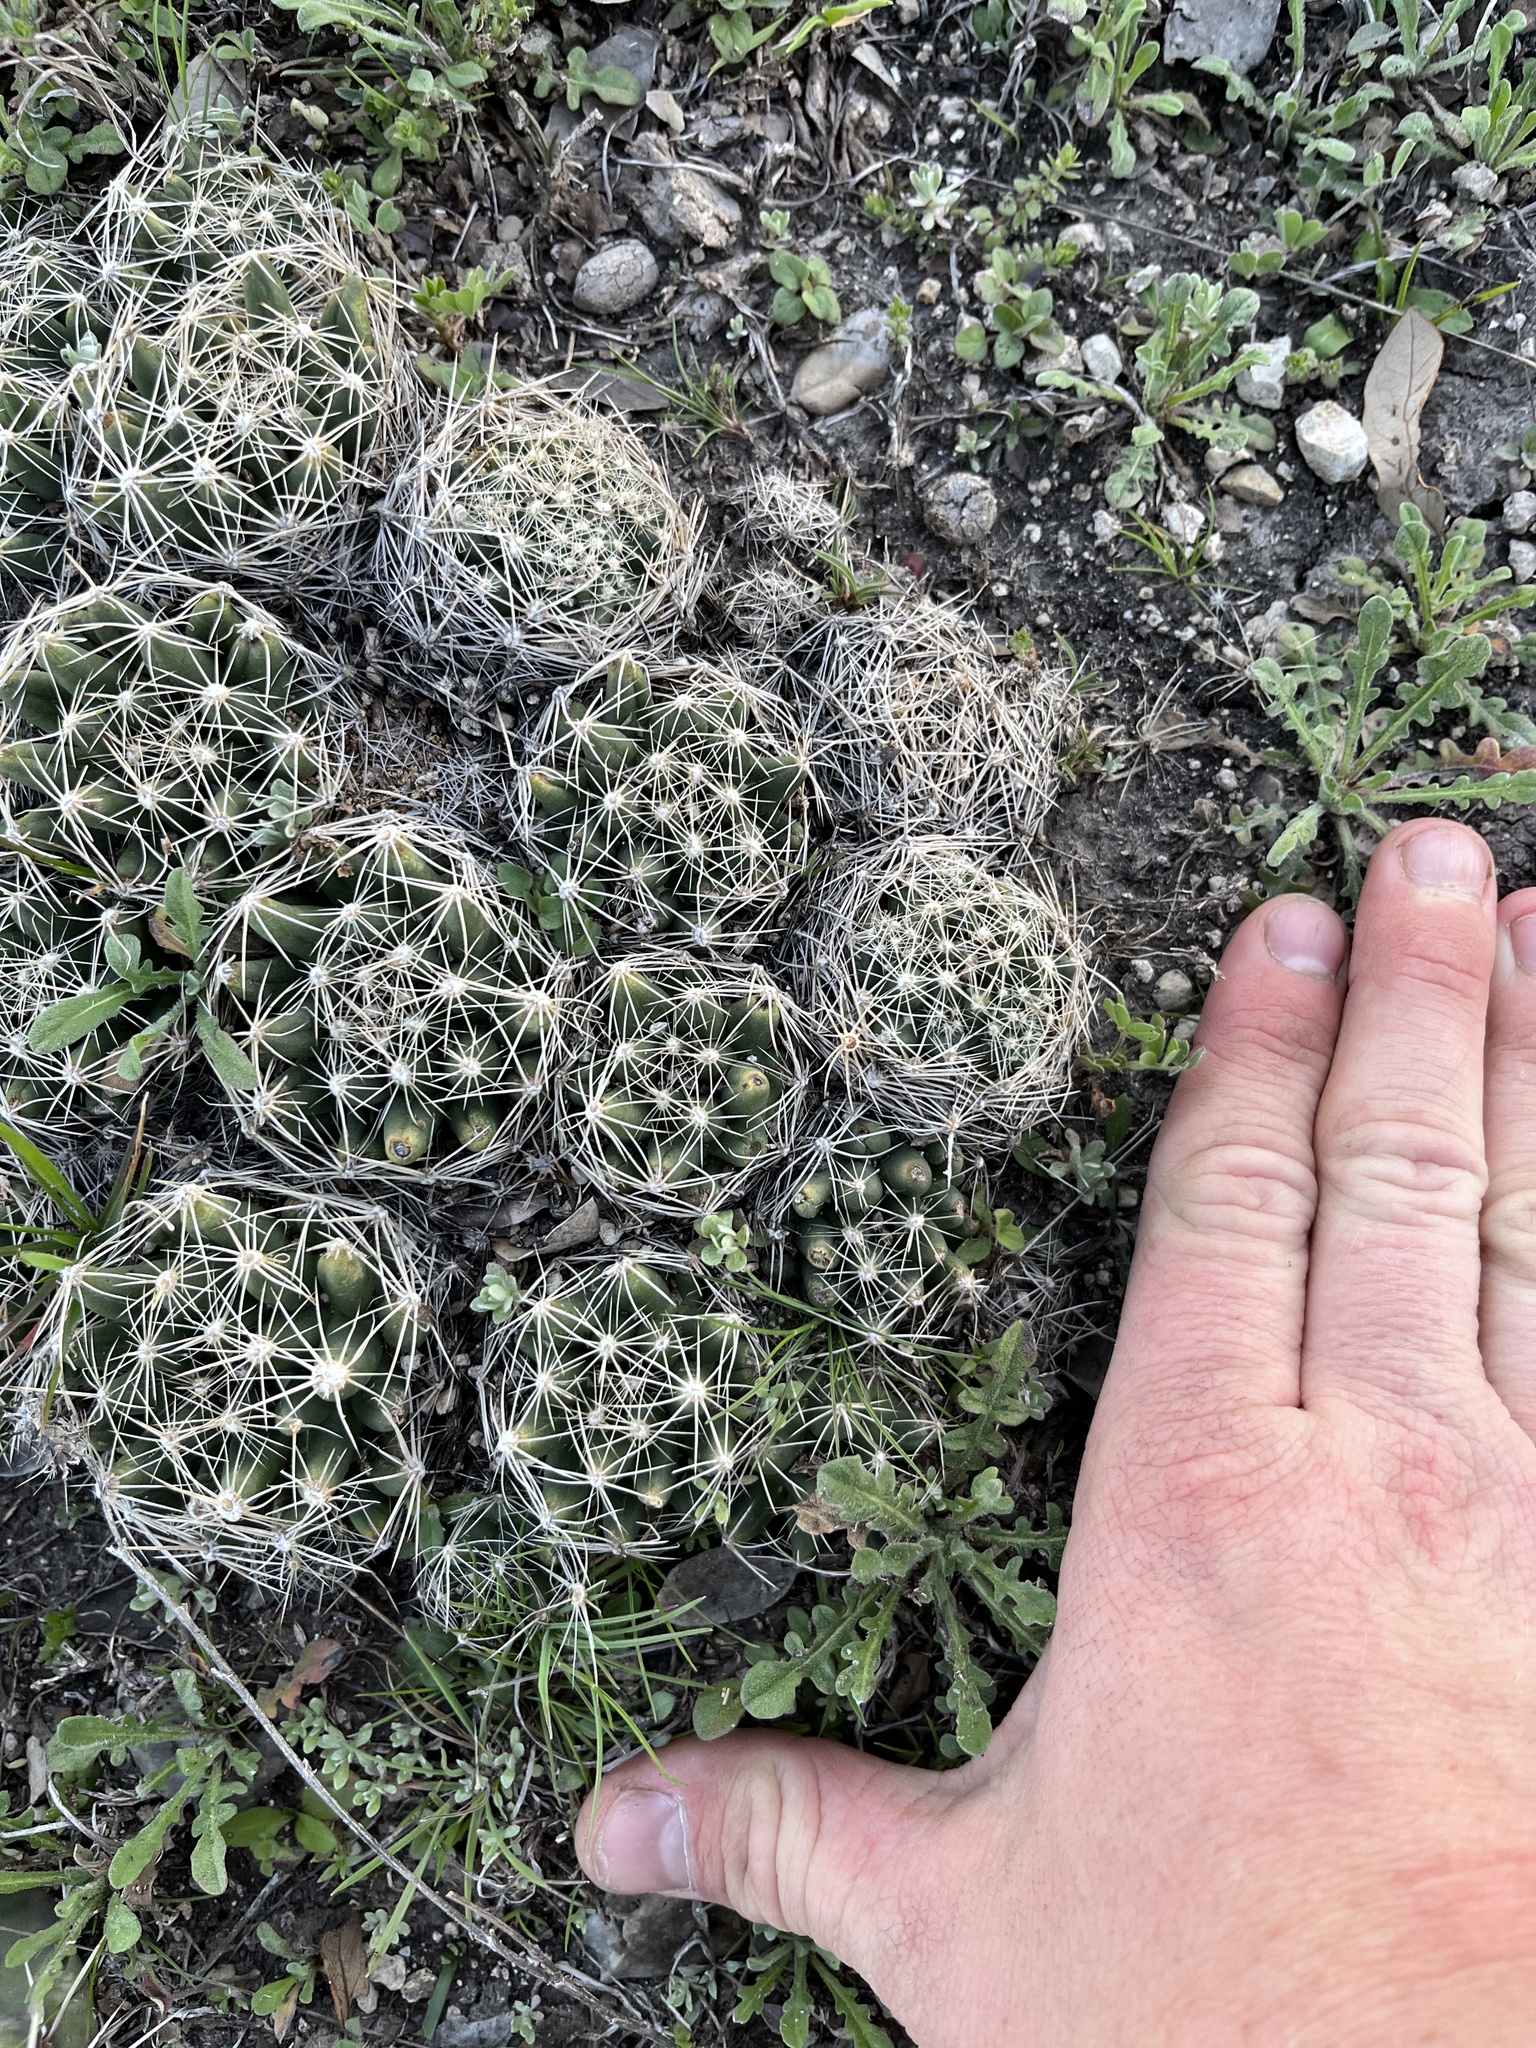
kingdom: Plantae
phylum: Tracheophyta
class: Magnoliopsida
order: Caryophyllales
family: Cactaceae
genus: Pelecyphora
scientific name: Pelecyphora missouriensis
